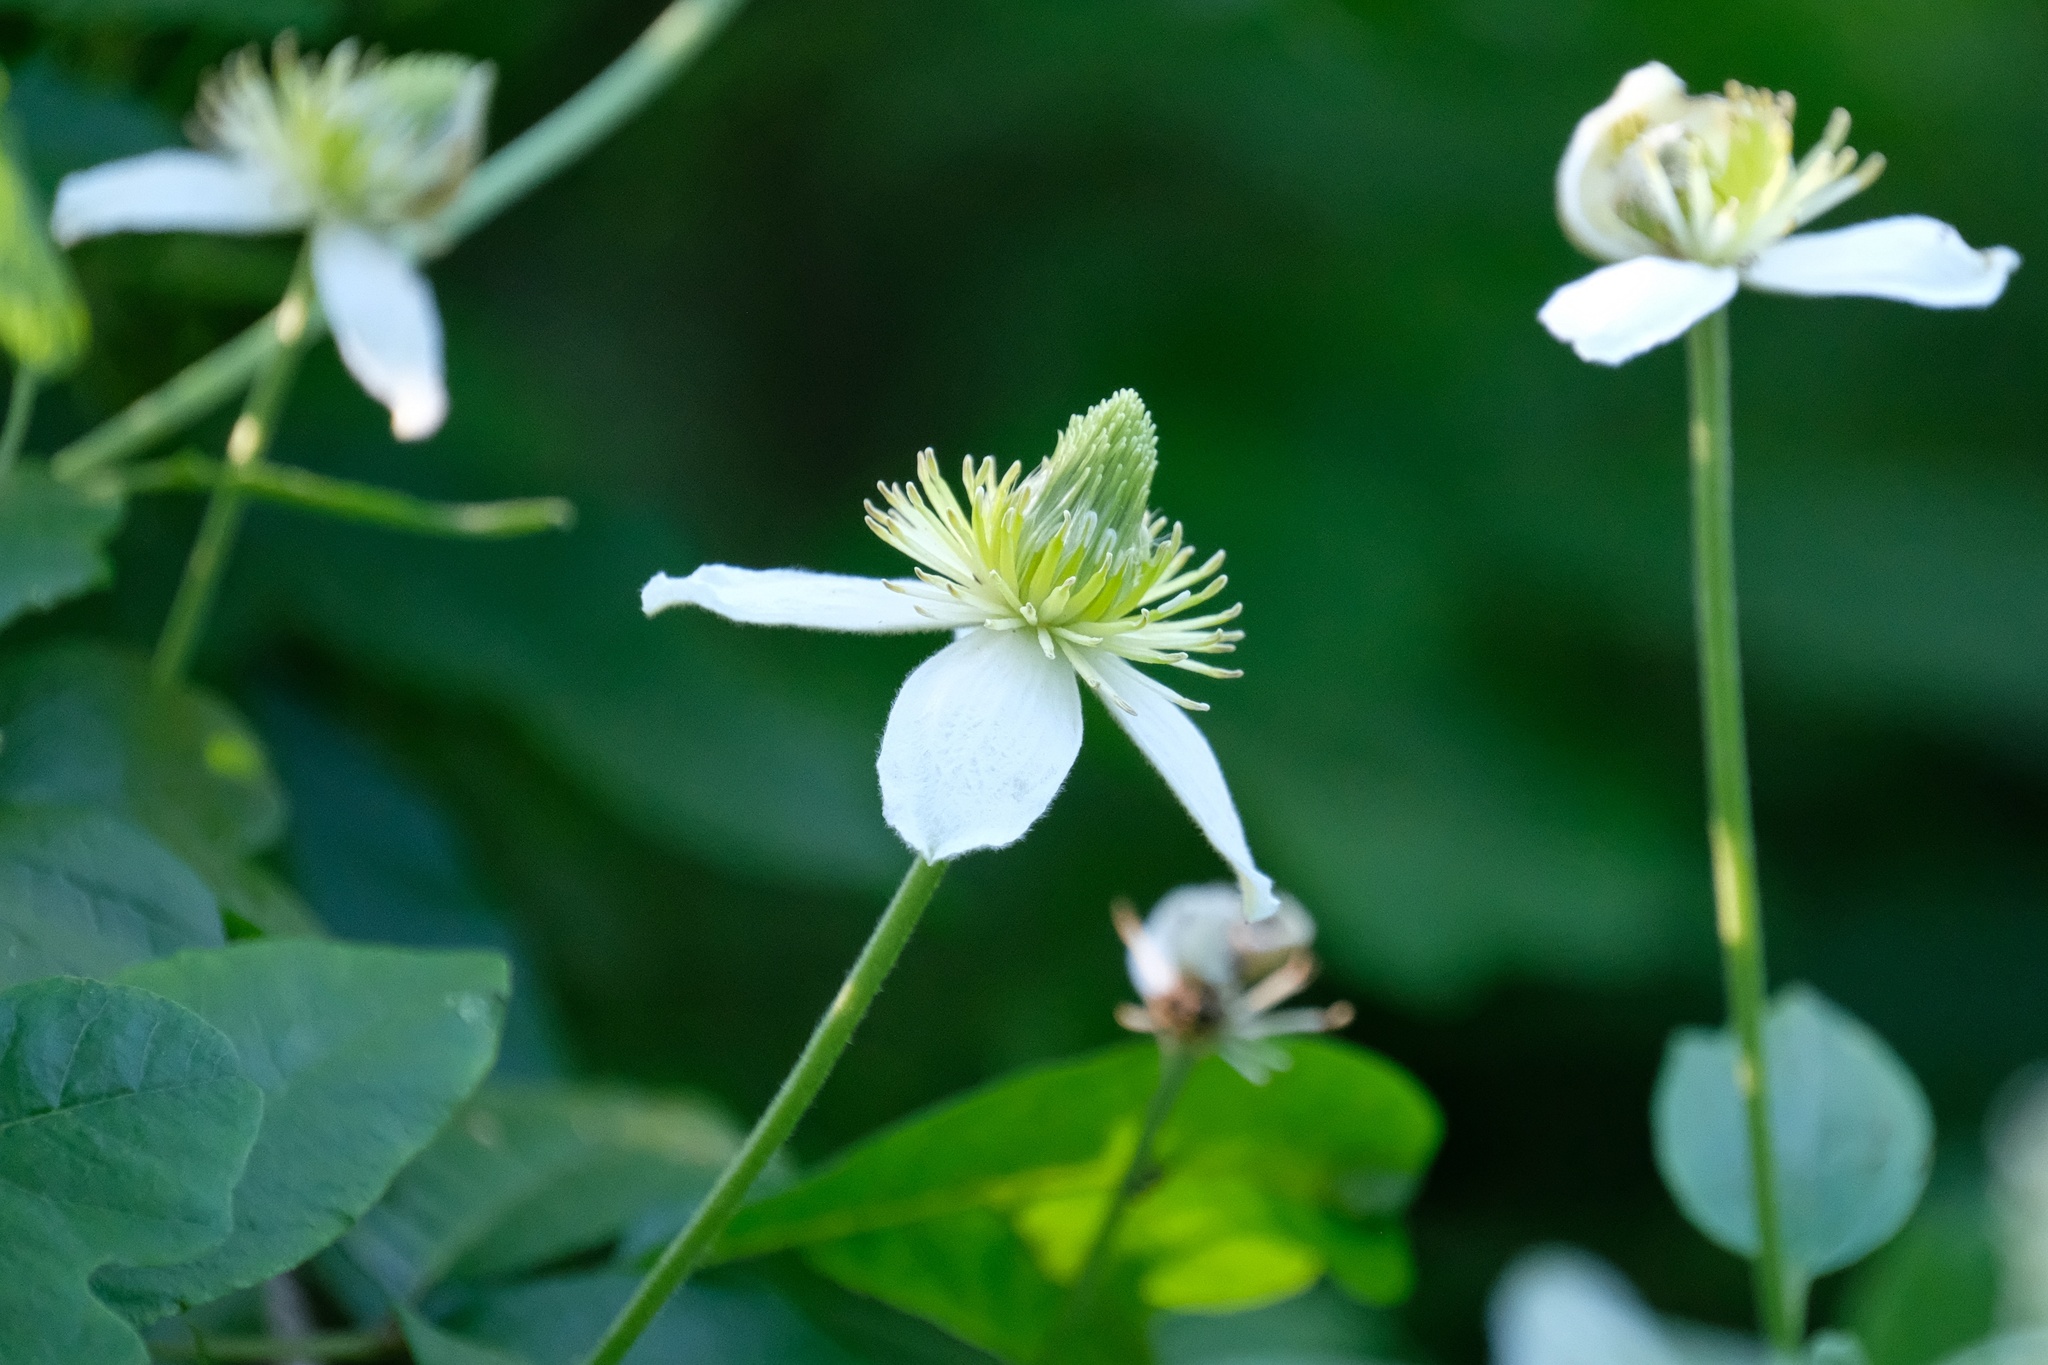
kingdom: Plantae
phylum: Tracheophyta
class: Magnoliopsida
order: Ranunculales
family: Ranunculaceae
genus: Clematis
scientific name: Clematis lasiantha
